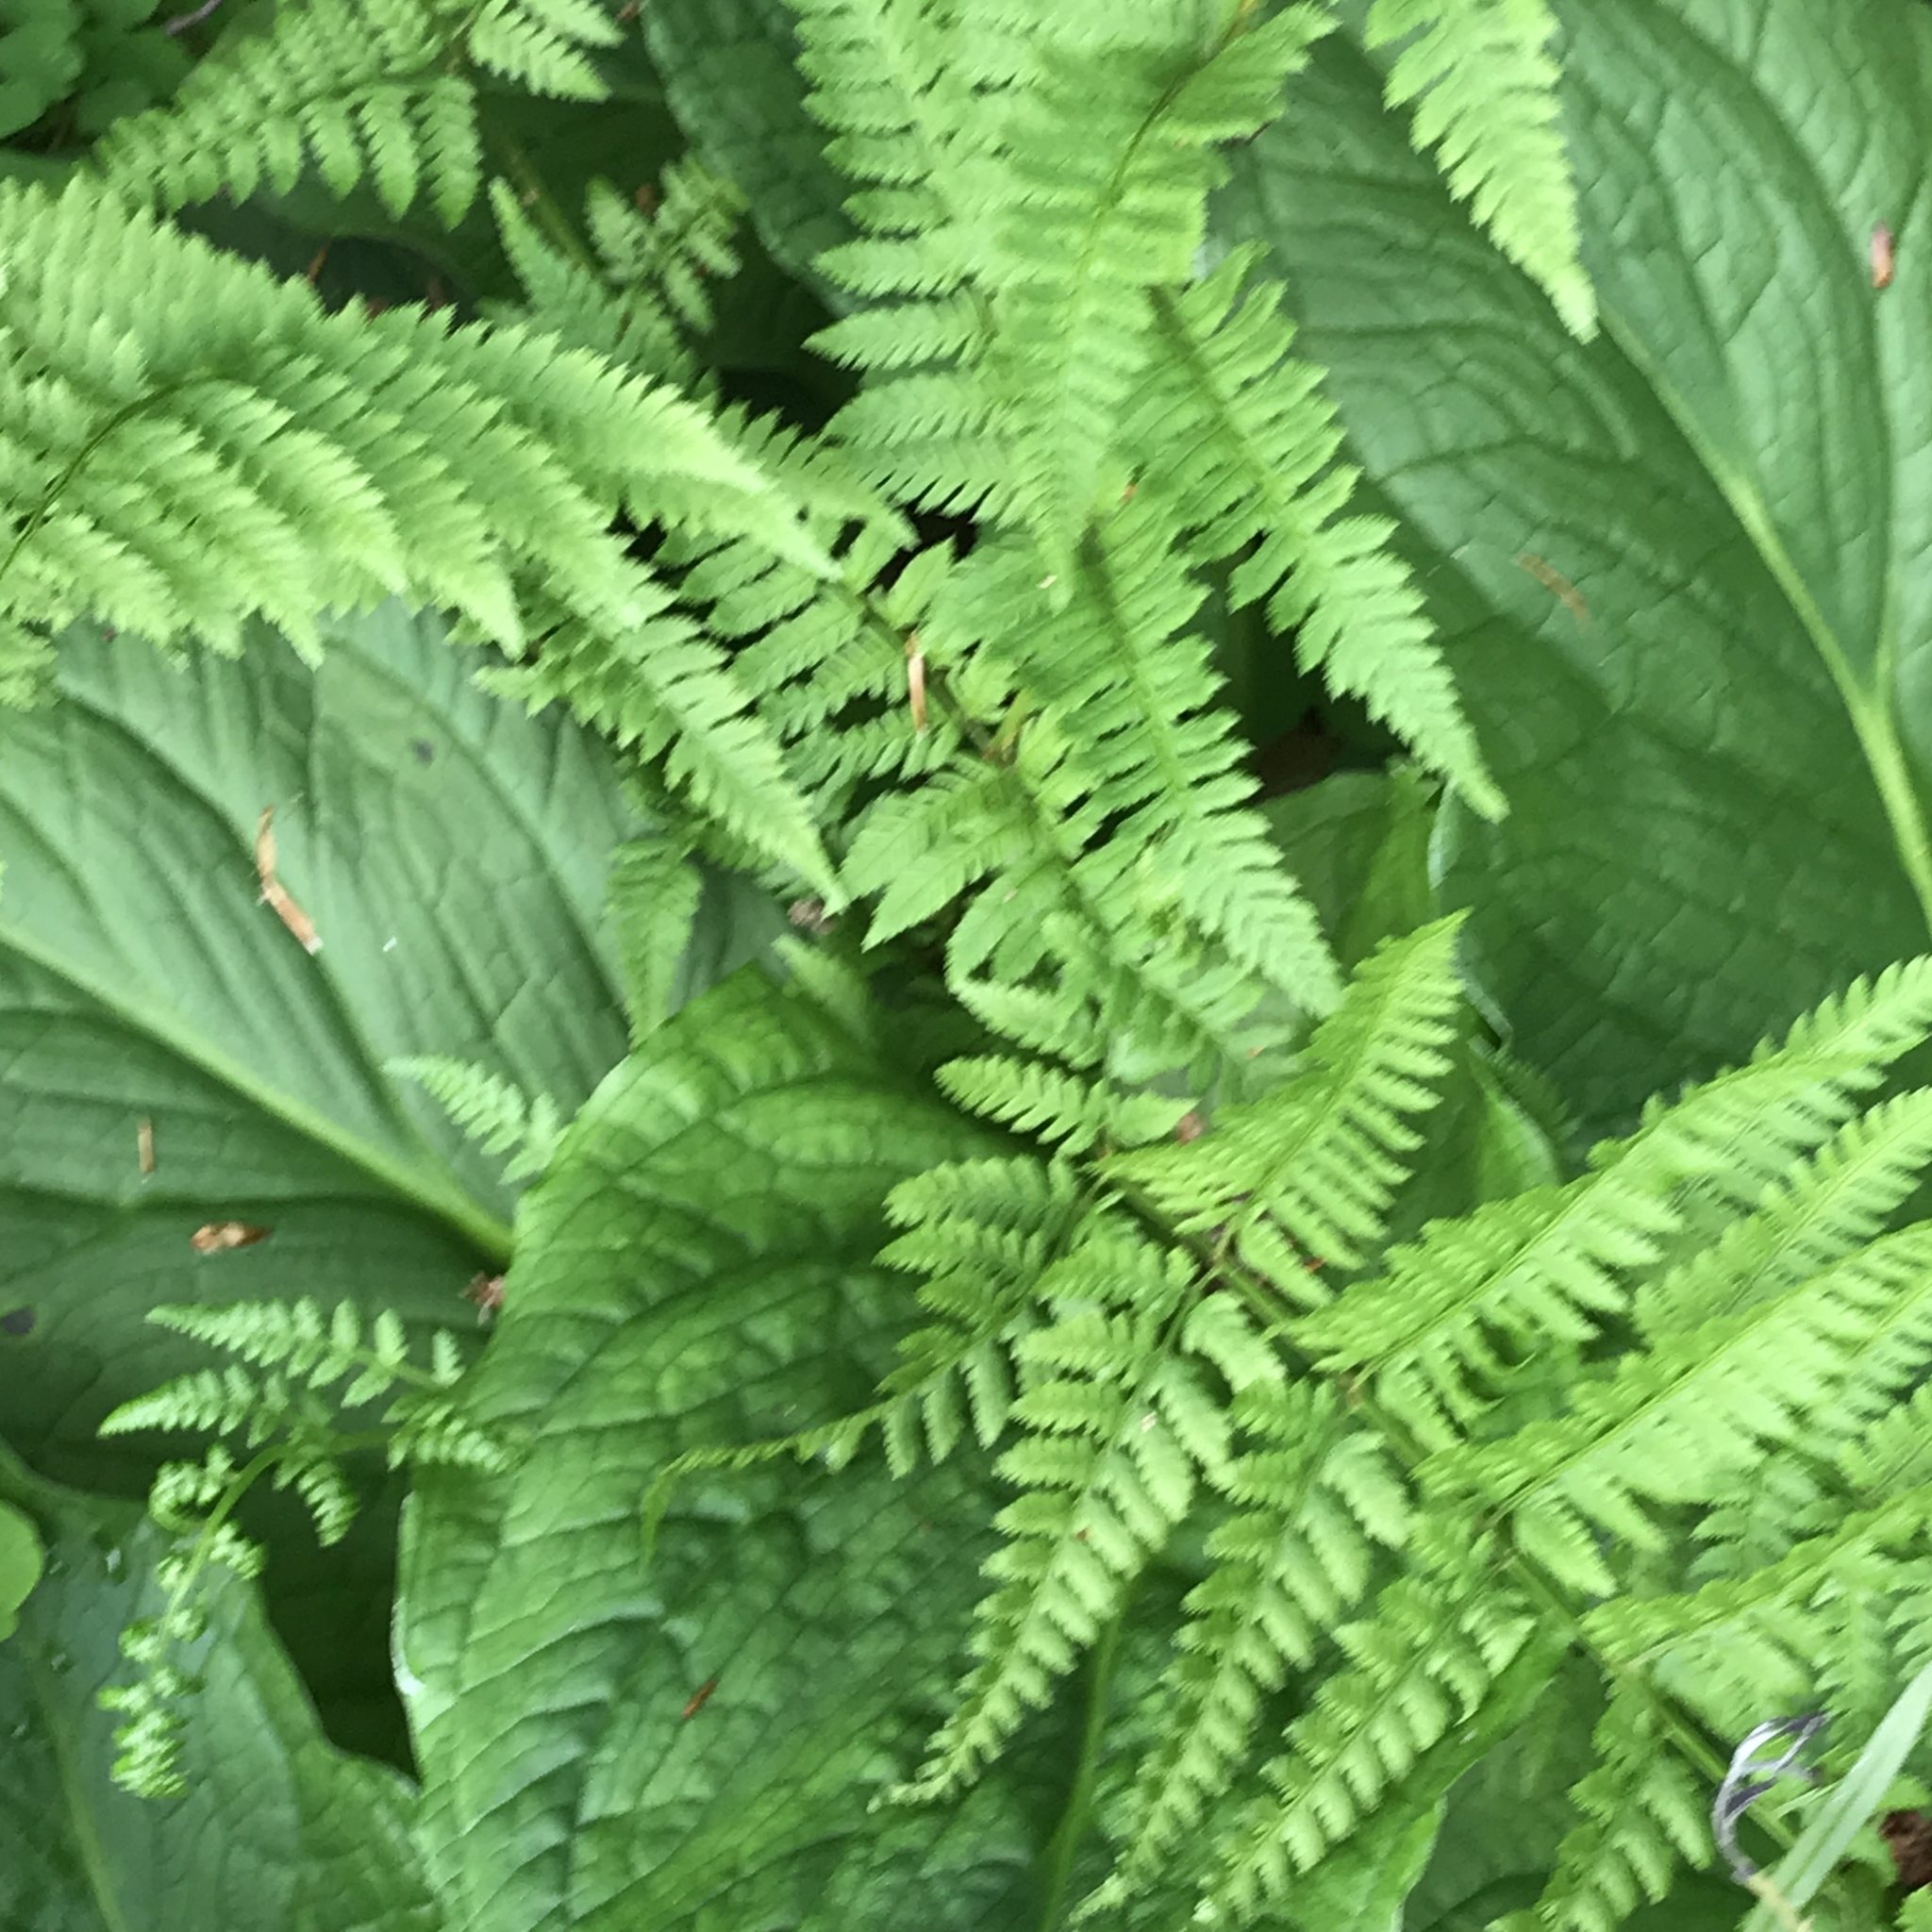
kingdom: Plantae
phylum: Tracheophyta
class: Polypodiopsida
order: Polypodiales
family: Dryopteridaceae
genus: Dryopteris
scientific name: Dryopteris intermedia
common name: Evergreen wood fern
